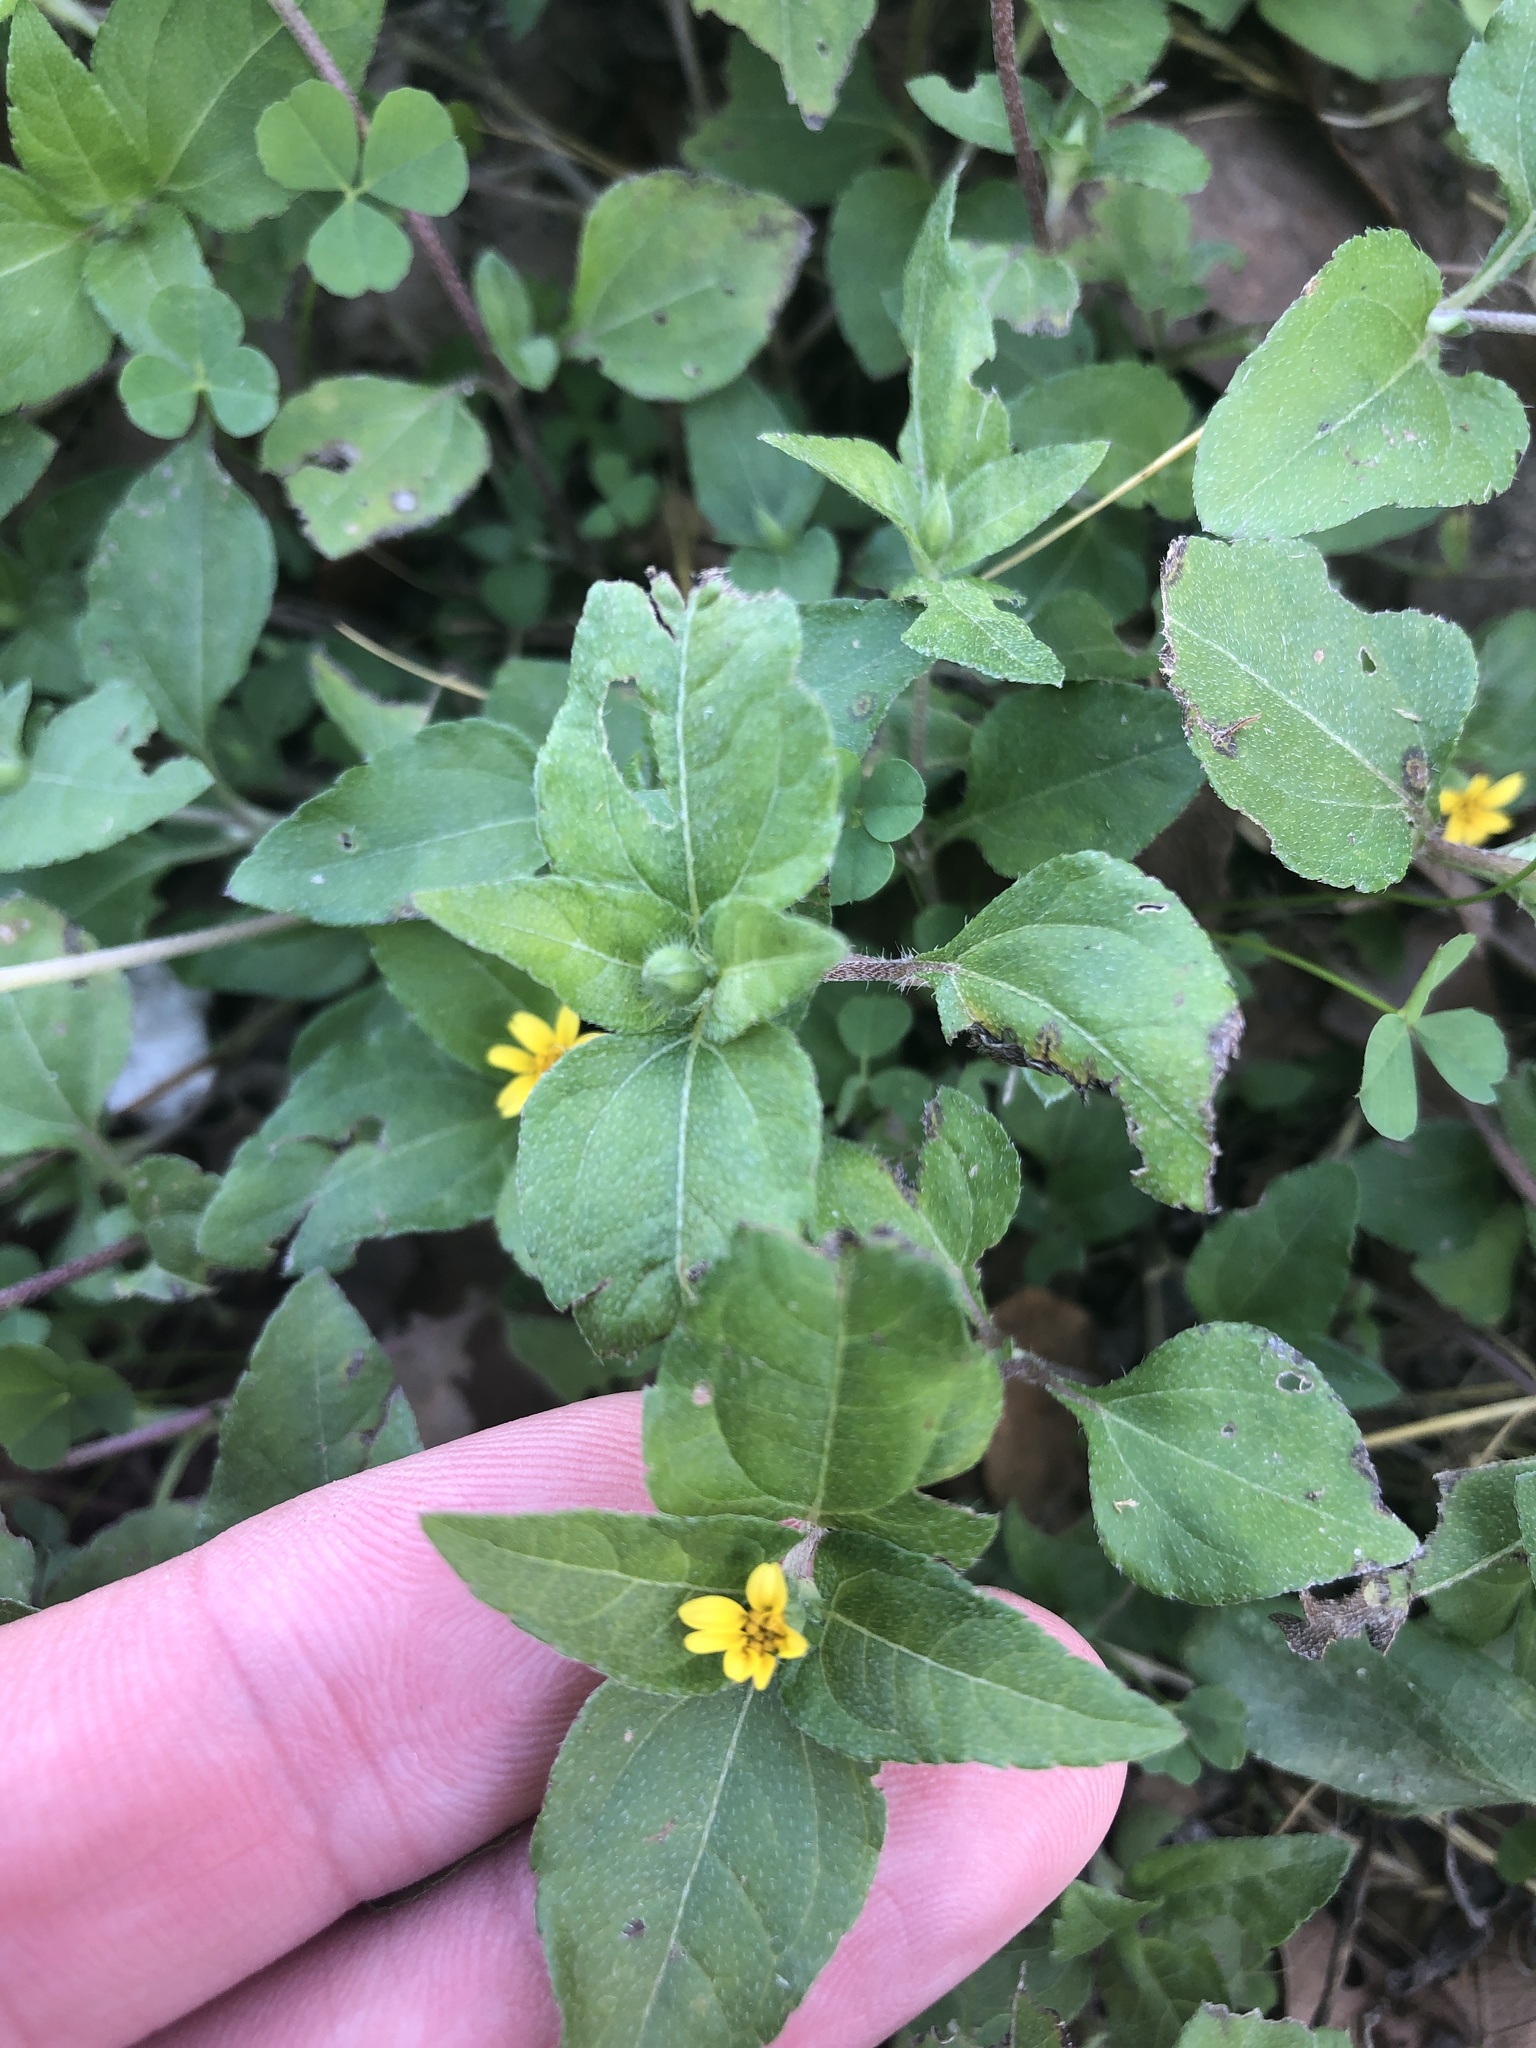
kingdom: Plantae
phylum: Tracheophyta
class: Magnoliopsida
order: Asterales
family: Asteraceae
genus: Calyptocarpus
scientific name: Calyptocarpus vialis
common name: Straggler daisy
